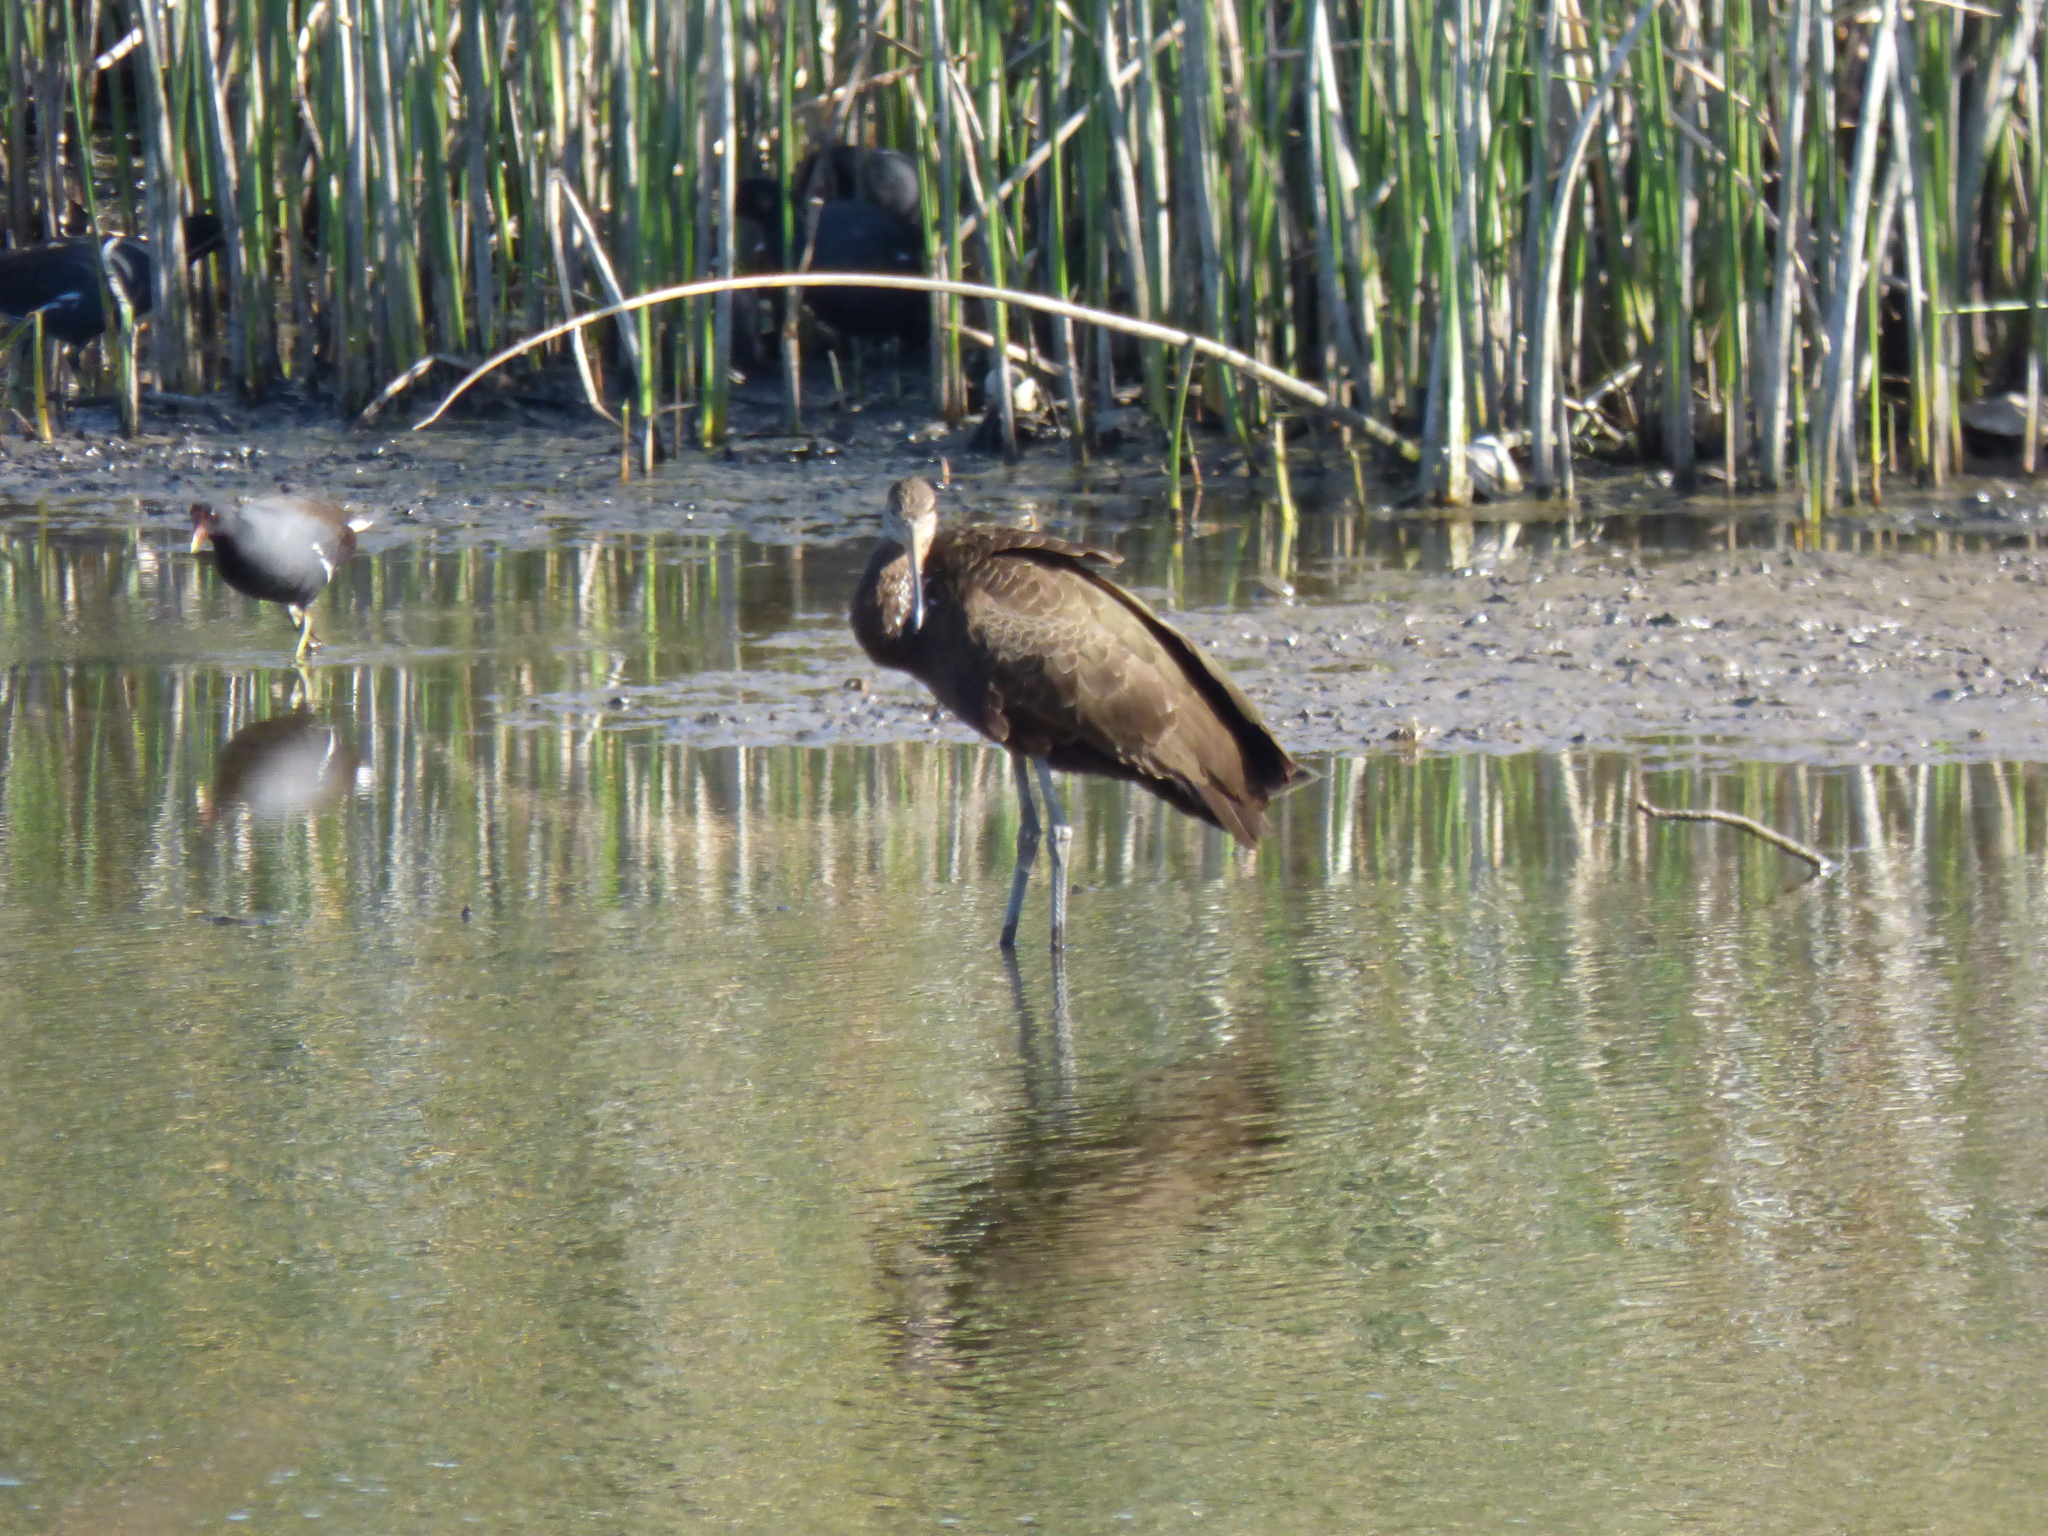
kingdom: Animalia
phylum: Chordata
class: Aves
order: Gruiformes
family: Aramidae
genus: Aramus
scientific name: Aramus guarauna
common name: Limpkin
